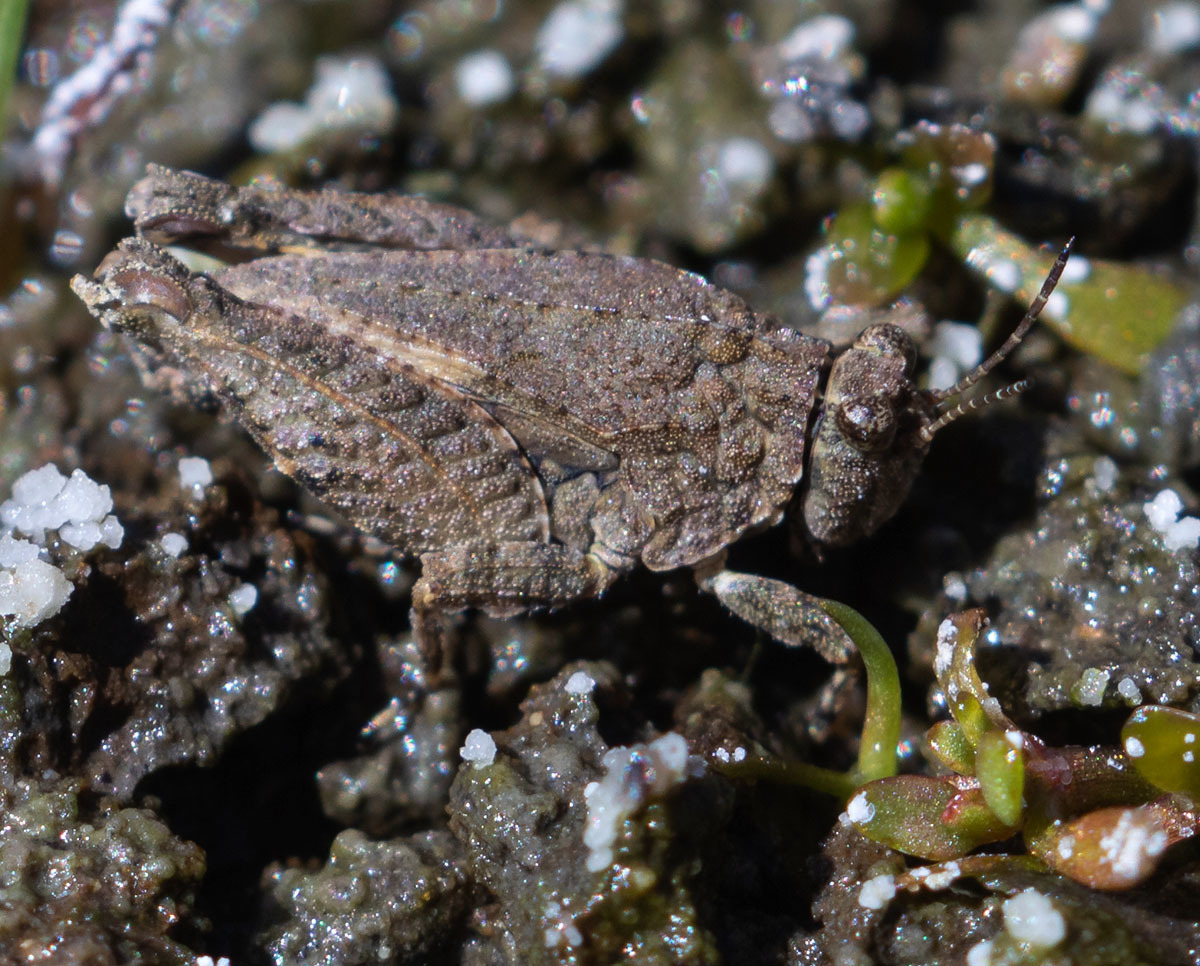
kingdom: Animalia
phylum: Arthropoda
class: Insecta
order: Orthoptera
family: Tetrigidae
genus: Paratettix
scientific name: Paratettix mexicanus
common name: Mexican pygmy grasshopper
